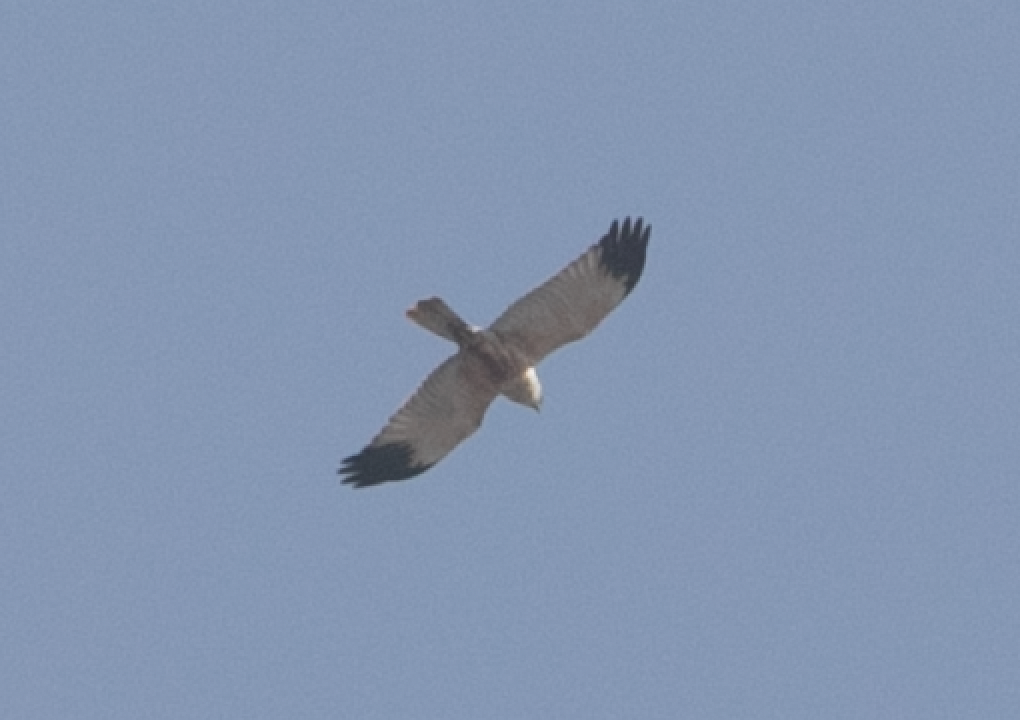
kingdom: Animalia
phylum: Chordata
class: Aves
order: Accipitriformes
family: Accipitridae
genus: Circus
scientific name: Circus aeruginosus
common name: Western marsh harrier
